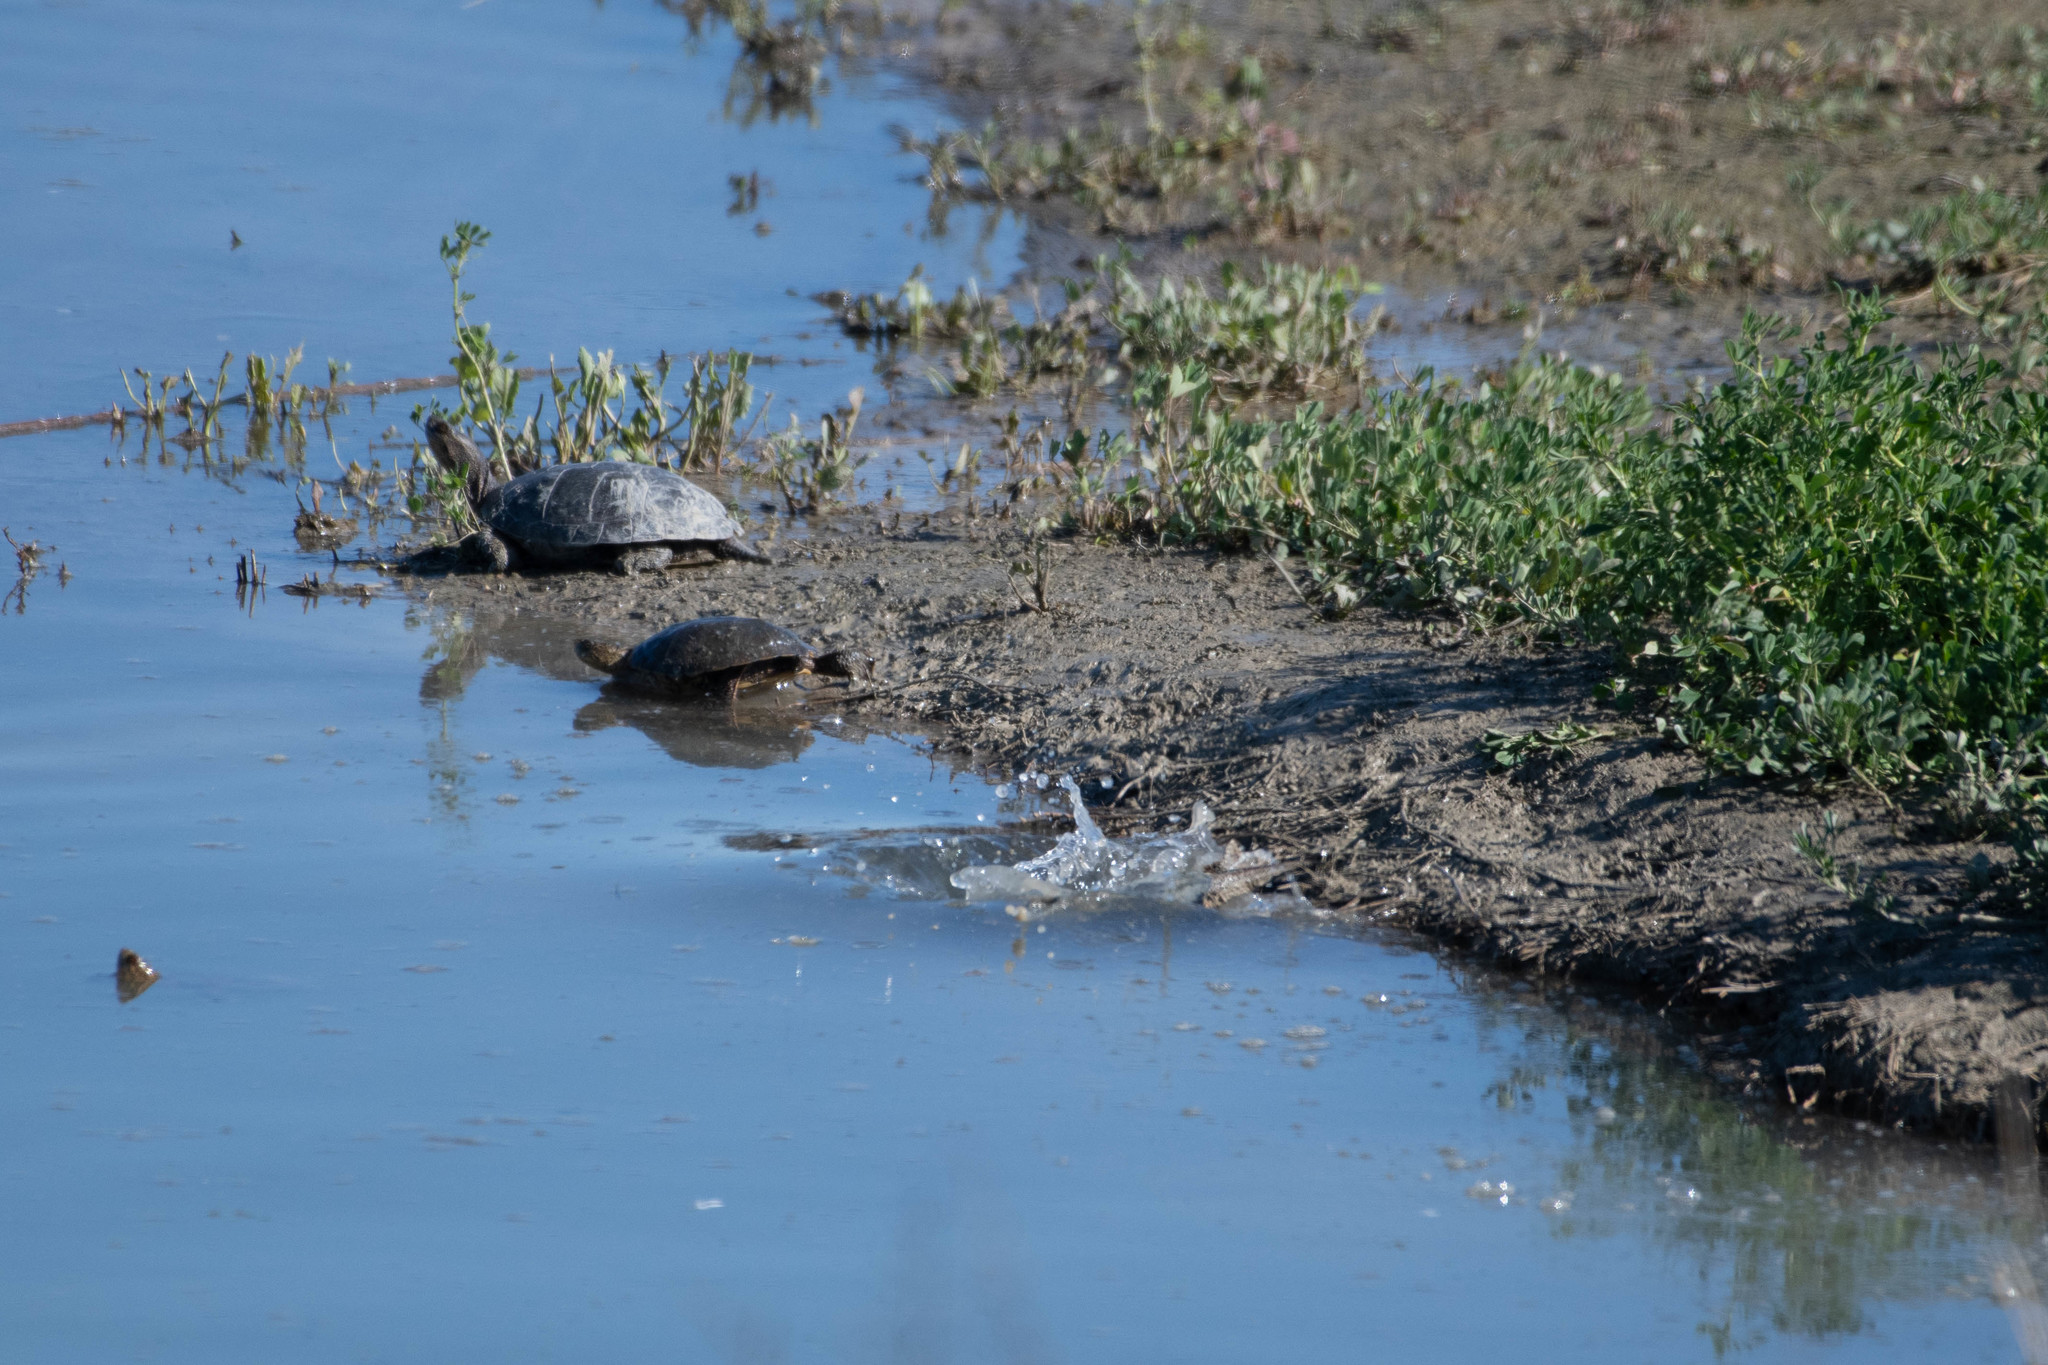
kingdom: Animalia
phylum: Chordata
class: Testudines
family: Emydidae
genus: Actinemys
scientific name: Actinemys marmorata
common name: Western pond turtle
